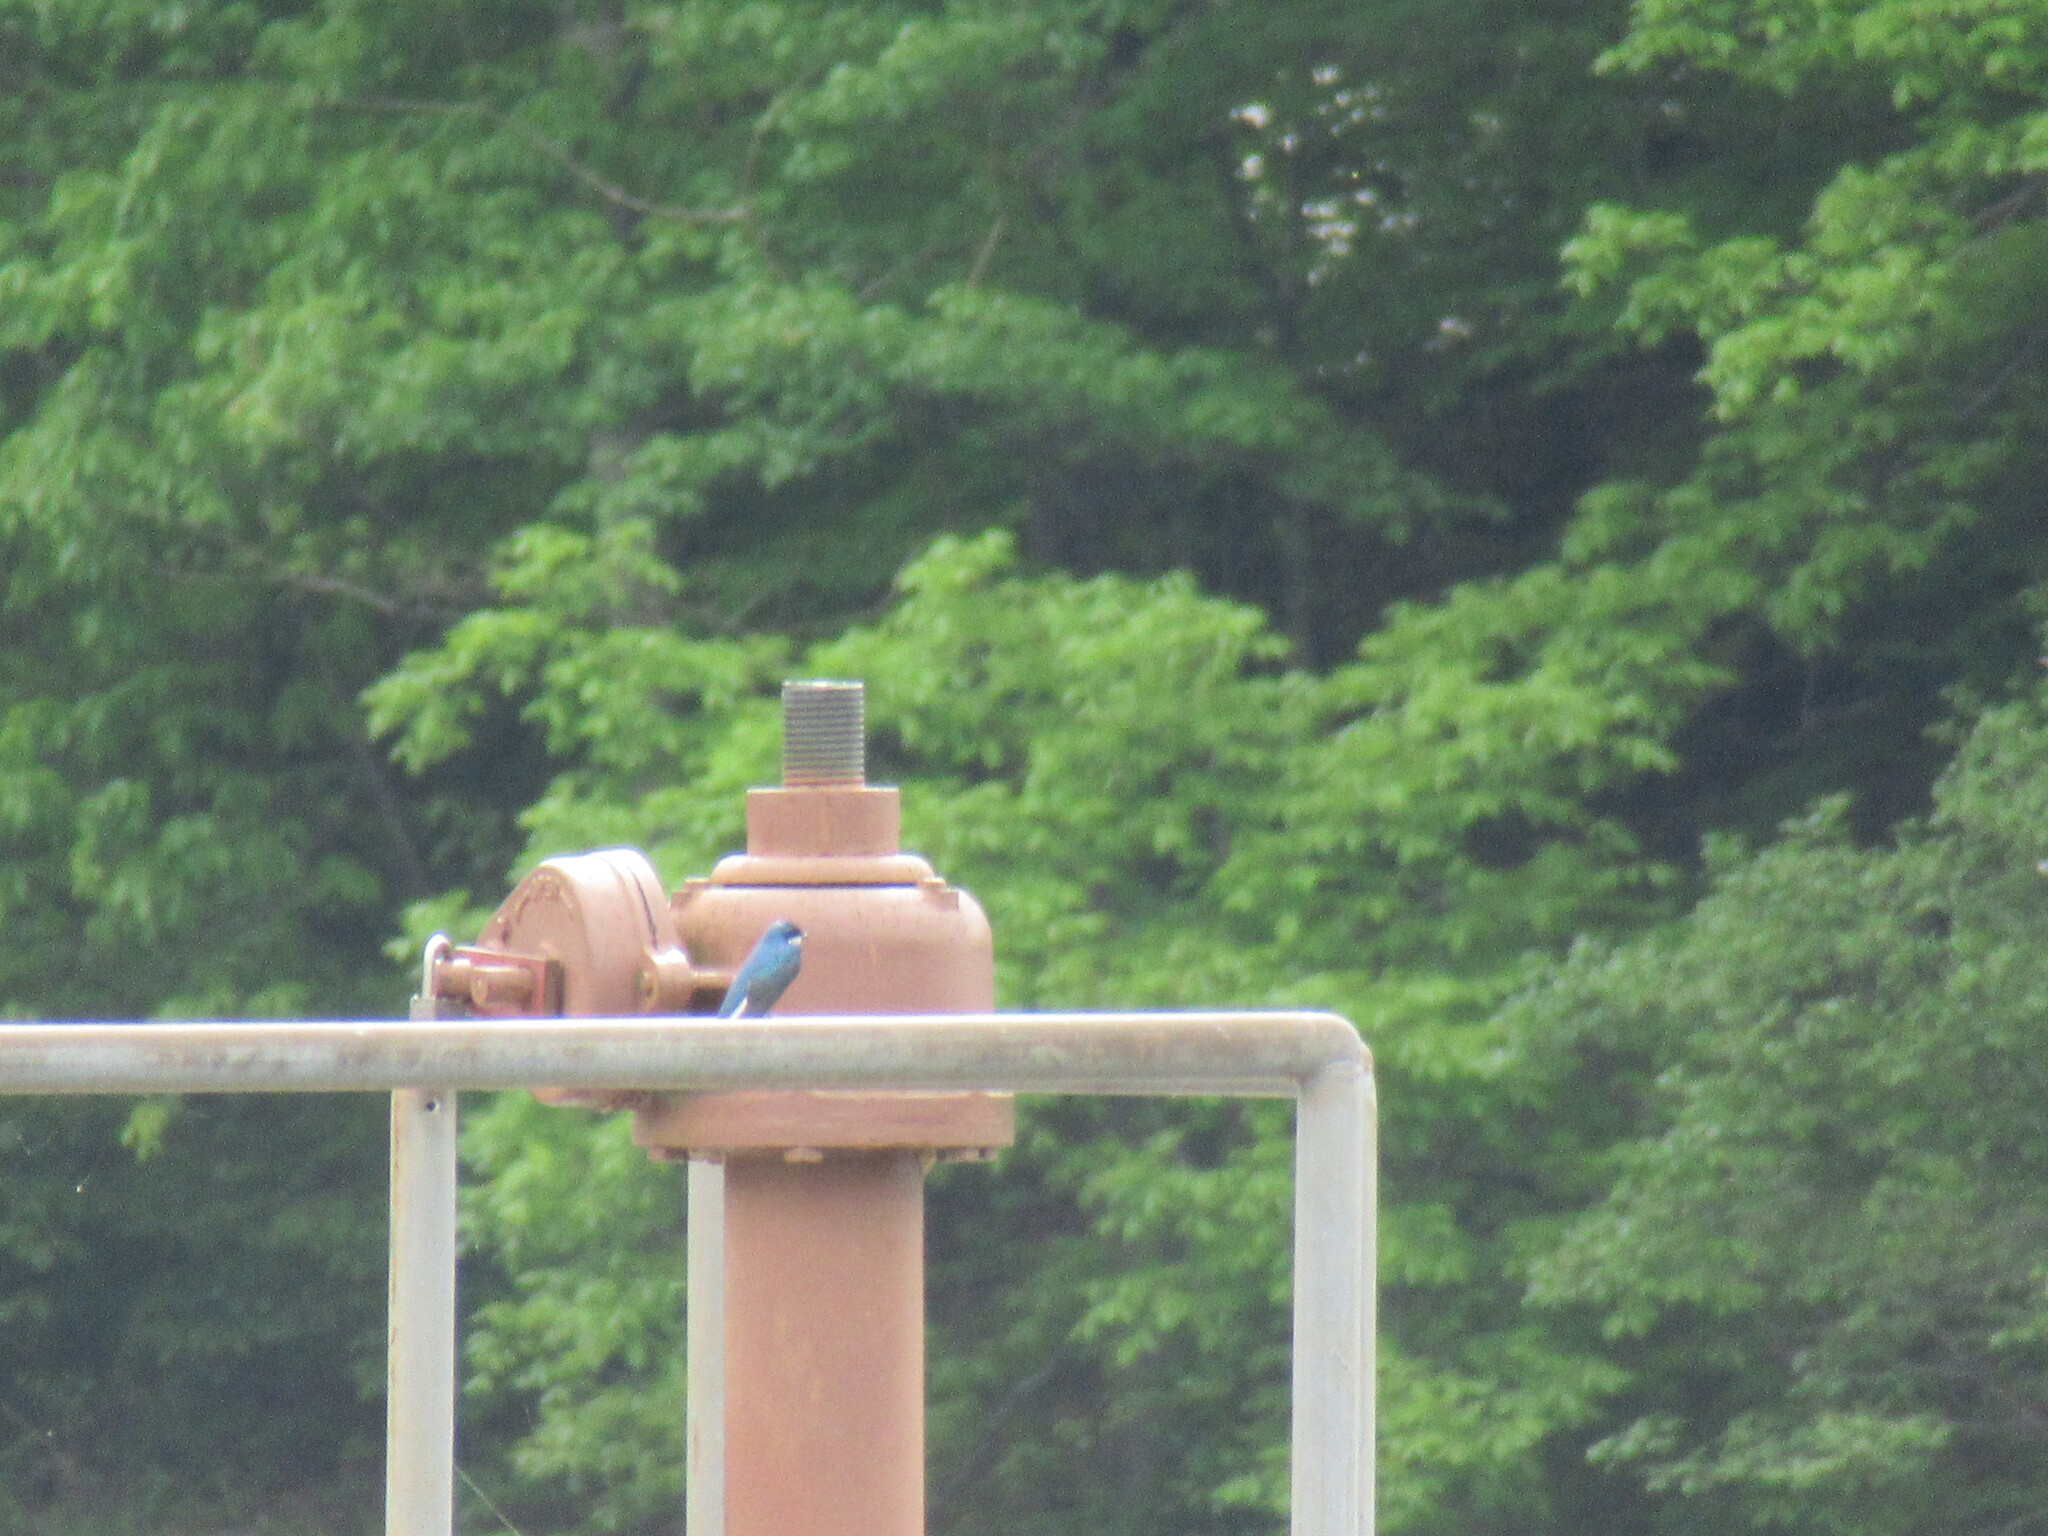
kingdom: Animalia
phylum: Chordata
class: Aves
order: Passeriformes
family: Hirundinidae
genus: Tachycineta
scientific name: Tachycineta bicolor
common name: Tree swallow
